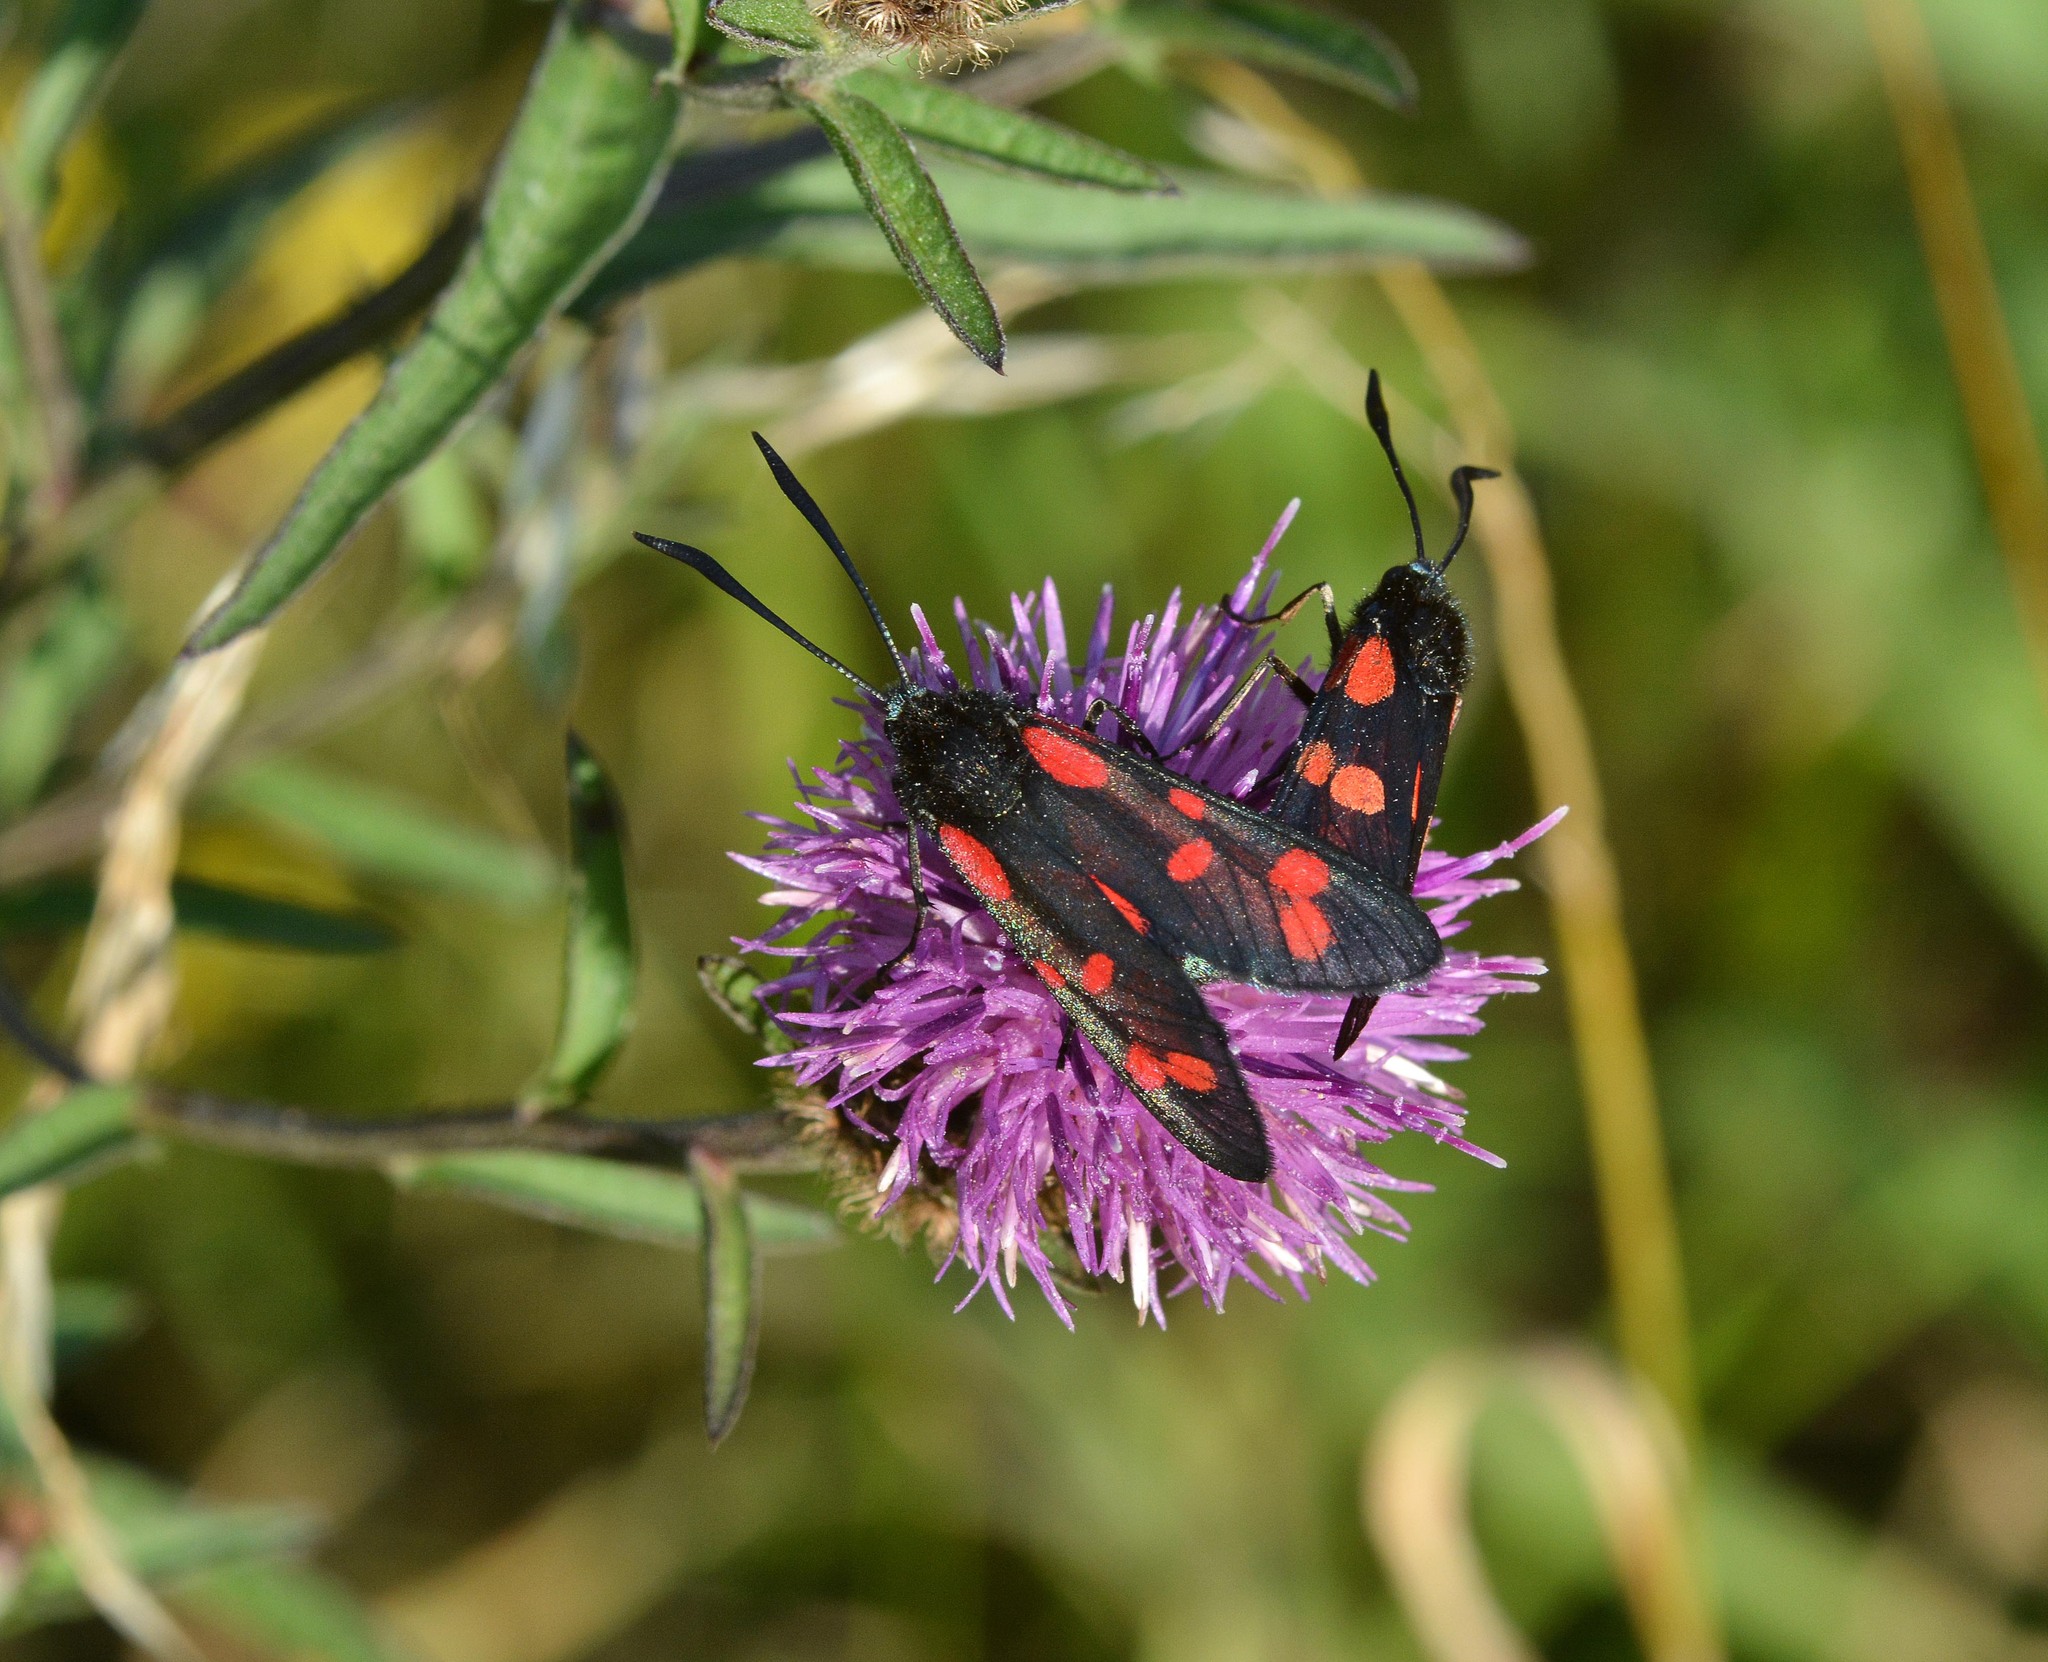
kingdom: Animalia
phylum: Arthropoda
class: Insecta
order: Lepidoptera
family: Zygaenidae
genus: Zygaena
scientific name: Zygaena filipendulae
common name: Six-spot burnet
